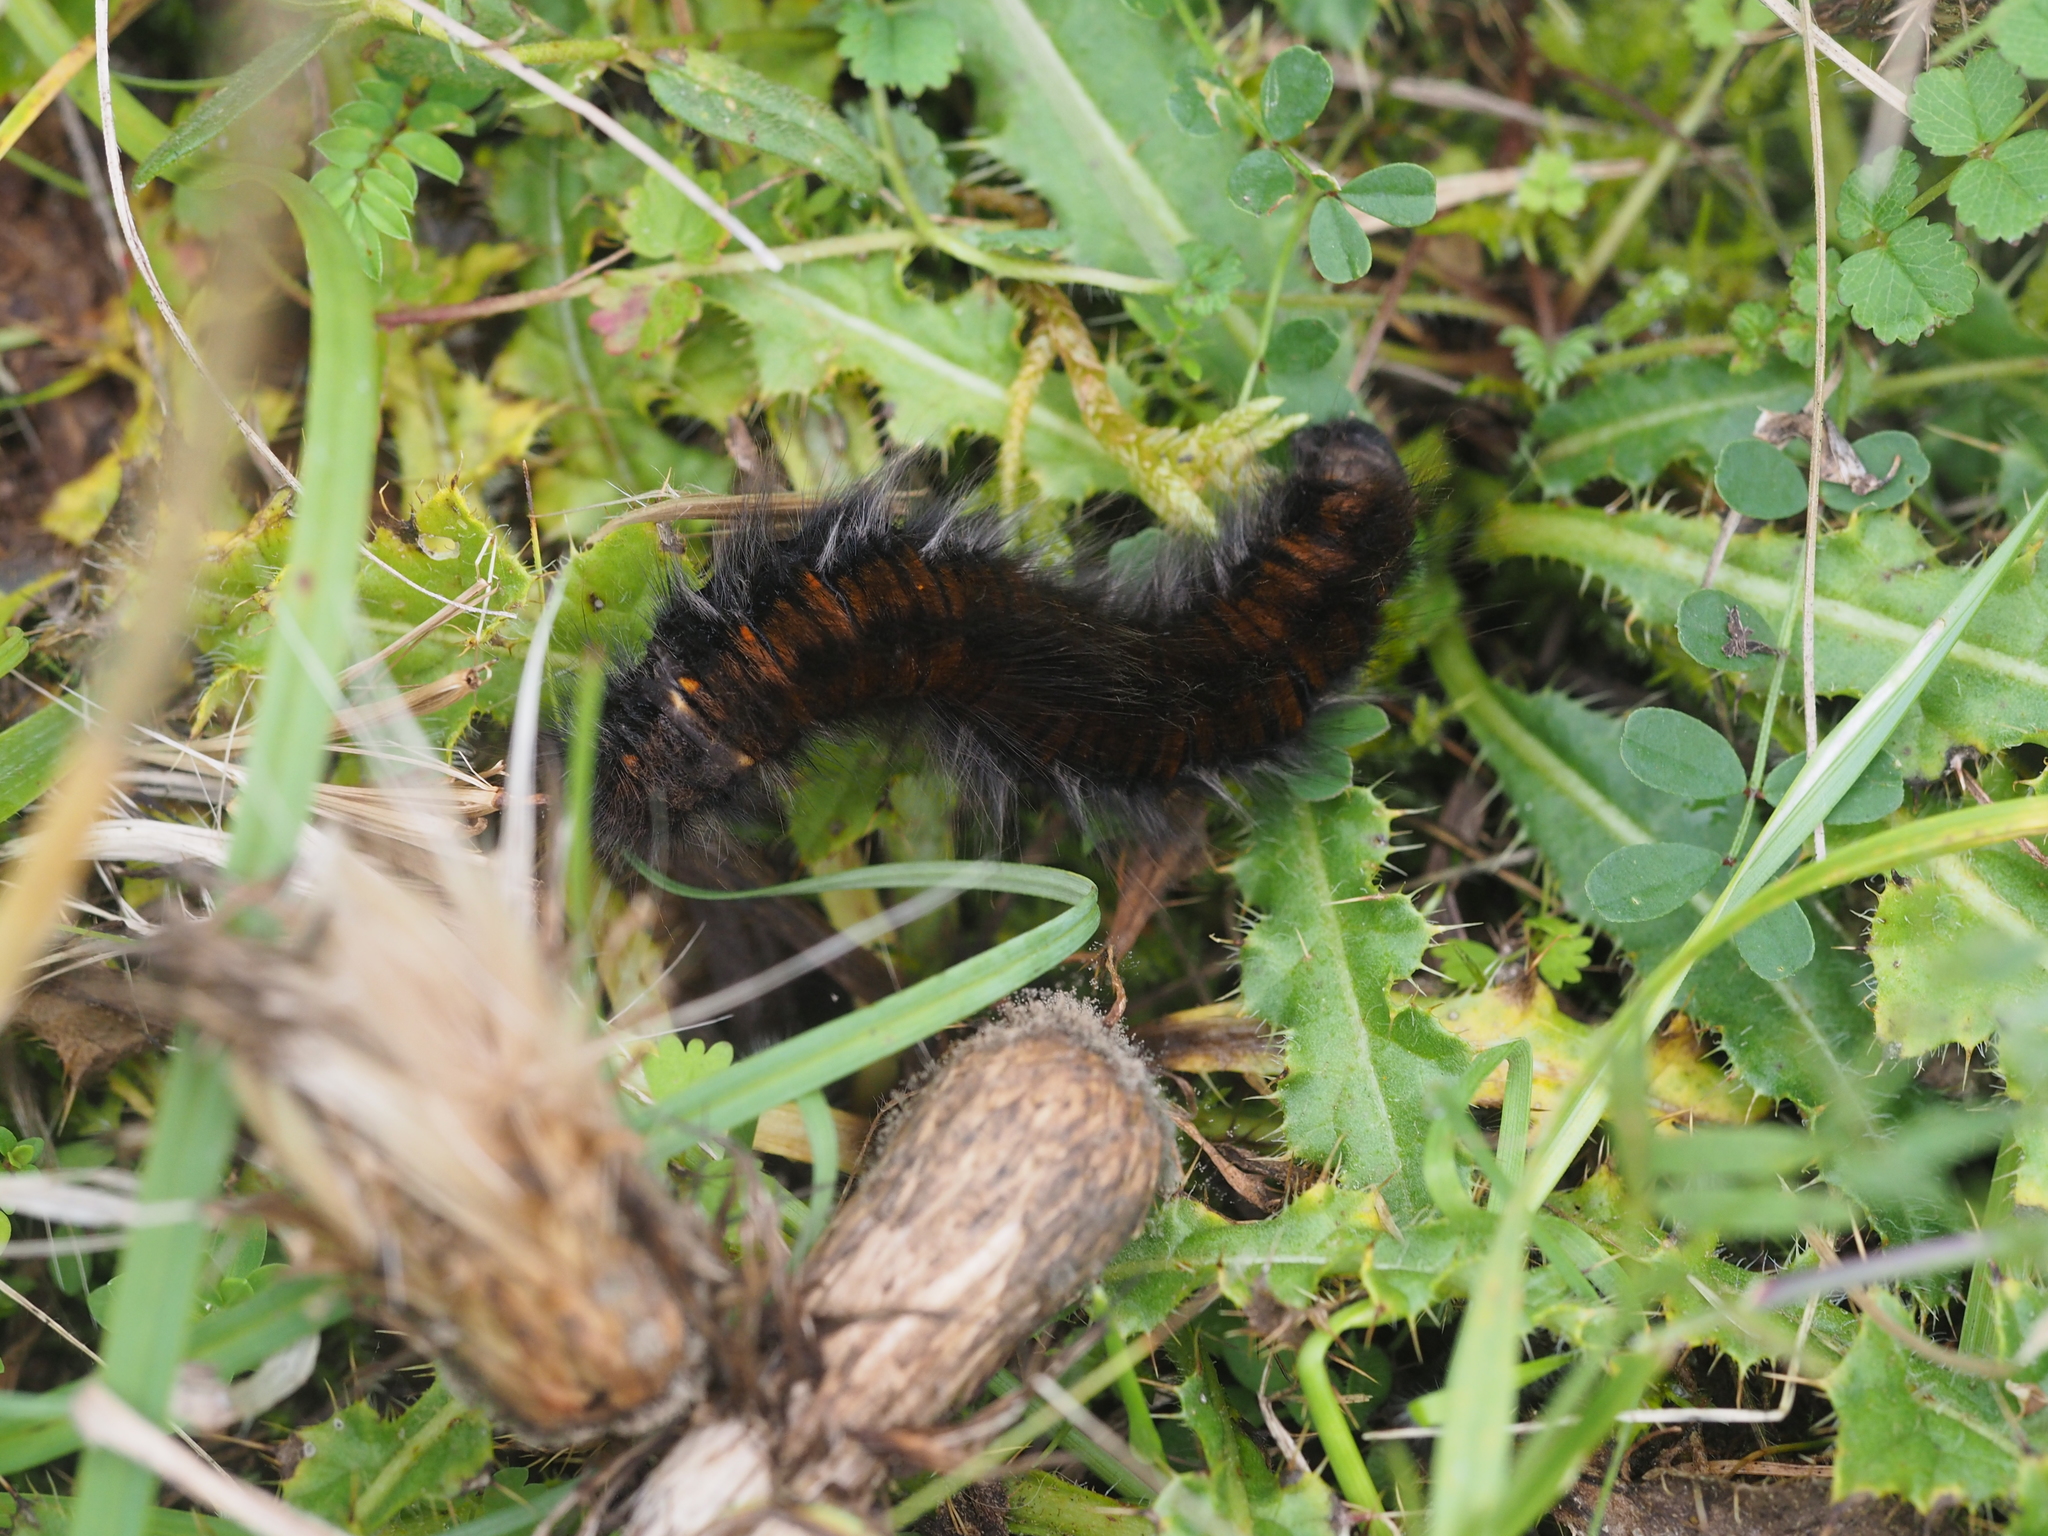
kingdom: Animalia
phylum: Arthropoda
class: Insecta
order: Lepidoptera
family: Lasiocampidae
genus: Macrothylacia
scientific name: Macrothylacia rubi
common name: Fox moth
